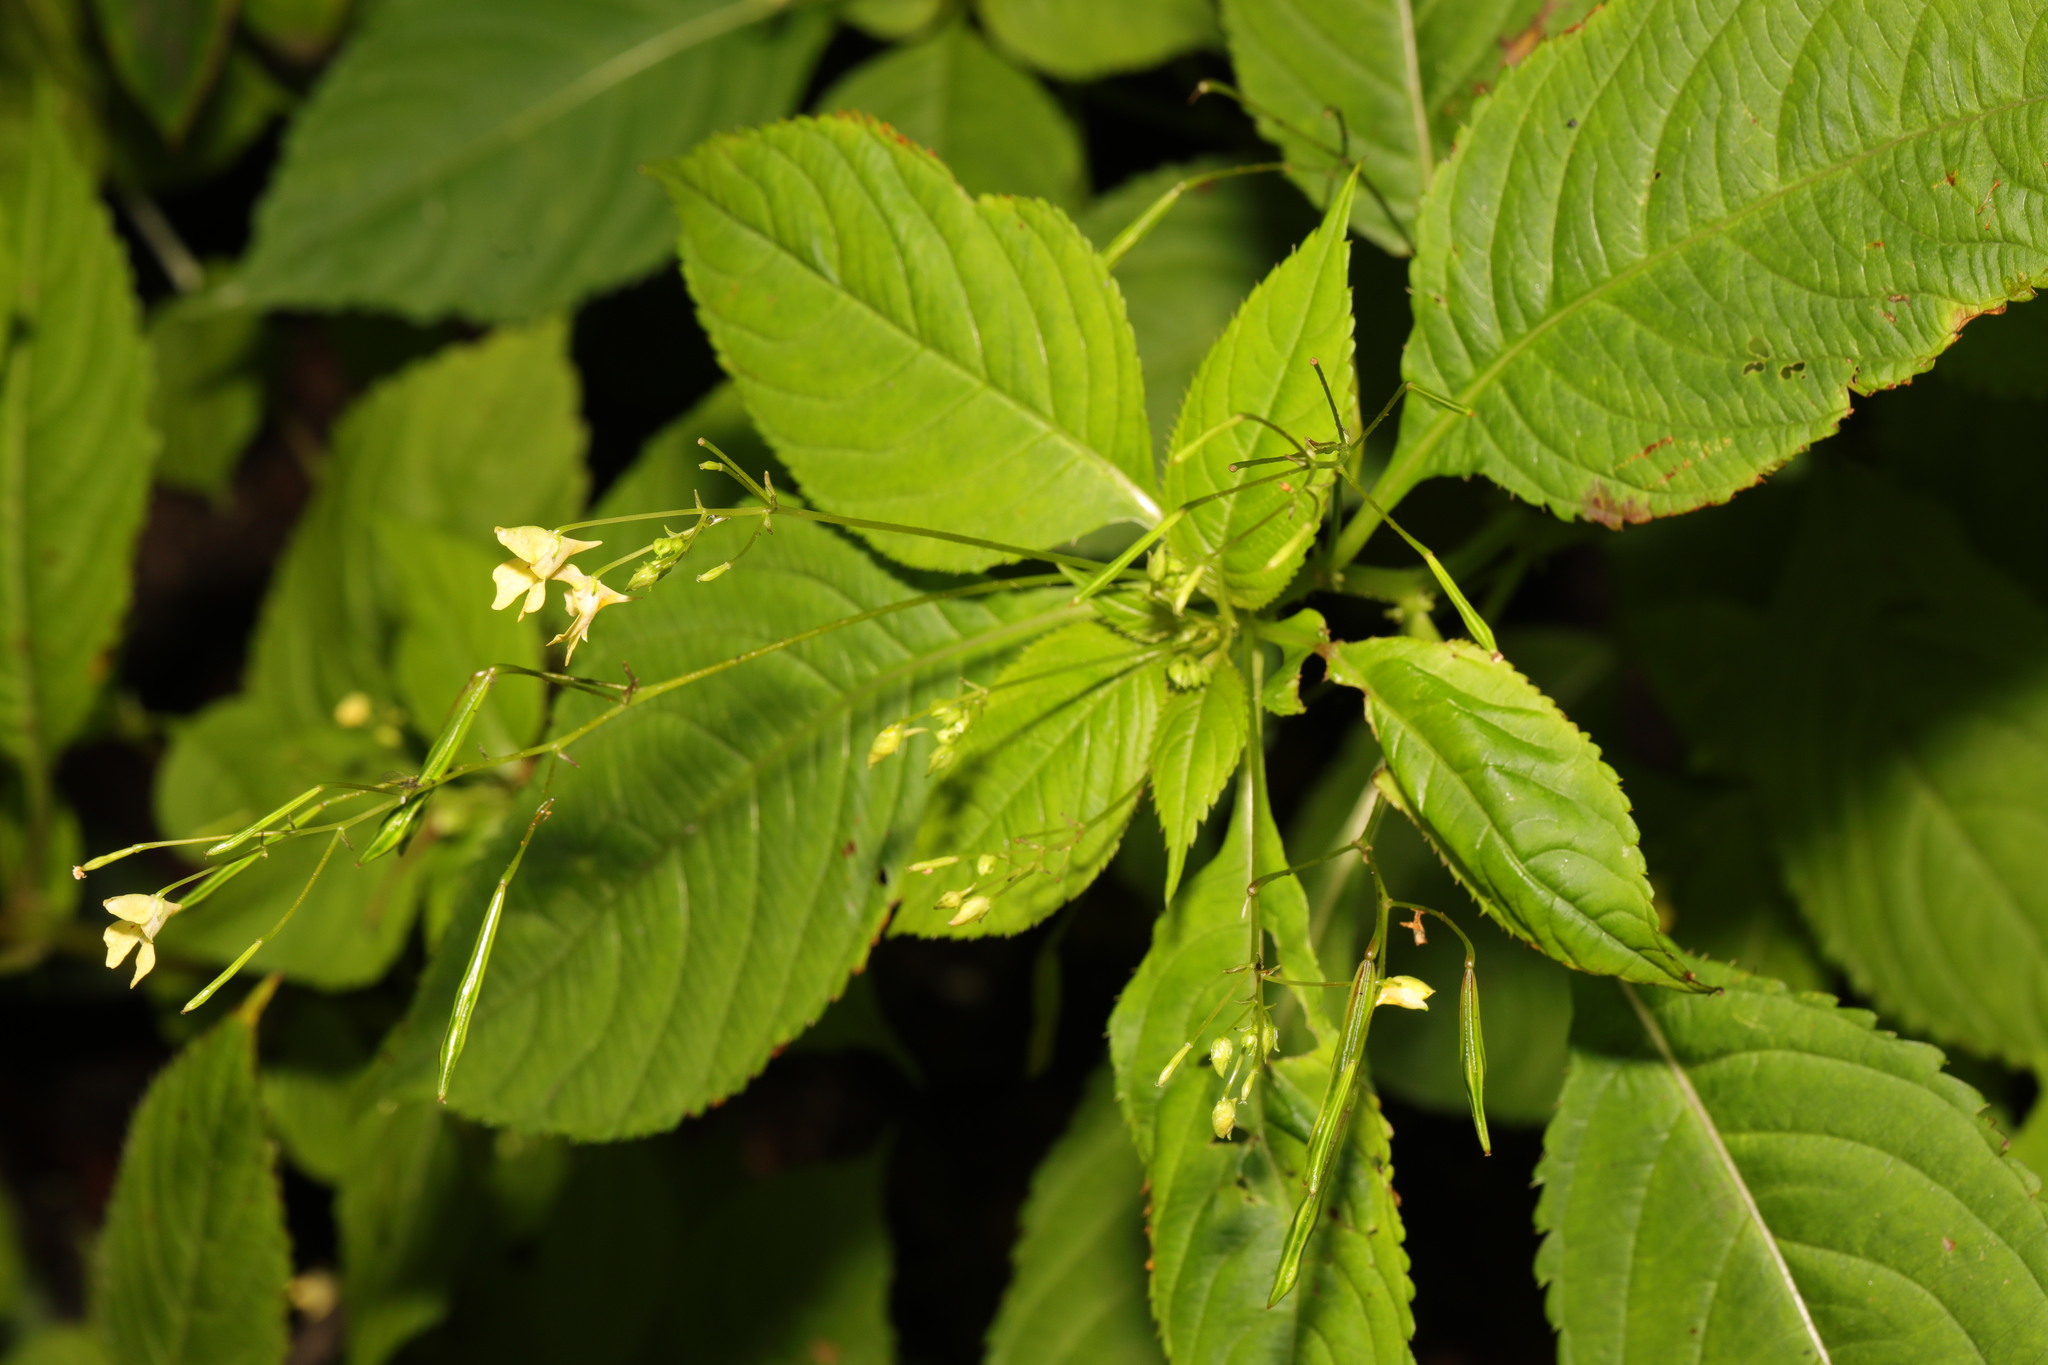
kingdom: Plantae
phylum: Tracheophyta
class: Magnoliopsida
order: Ericales
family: Balsaminaceae
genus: Impatiens
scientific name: Impatiens parviflora
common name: Small balsam
